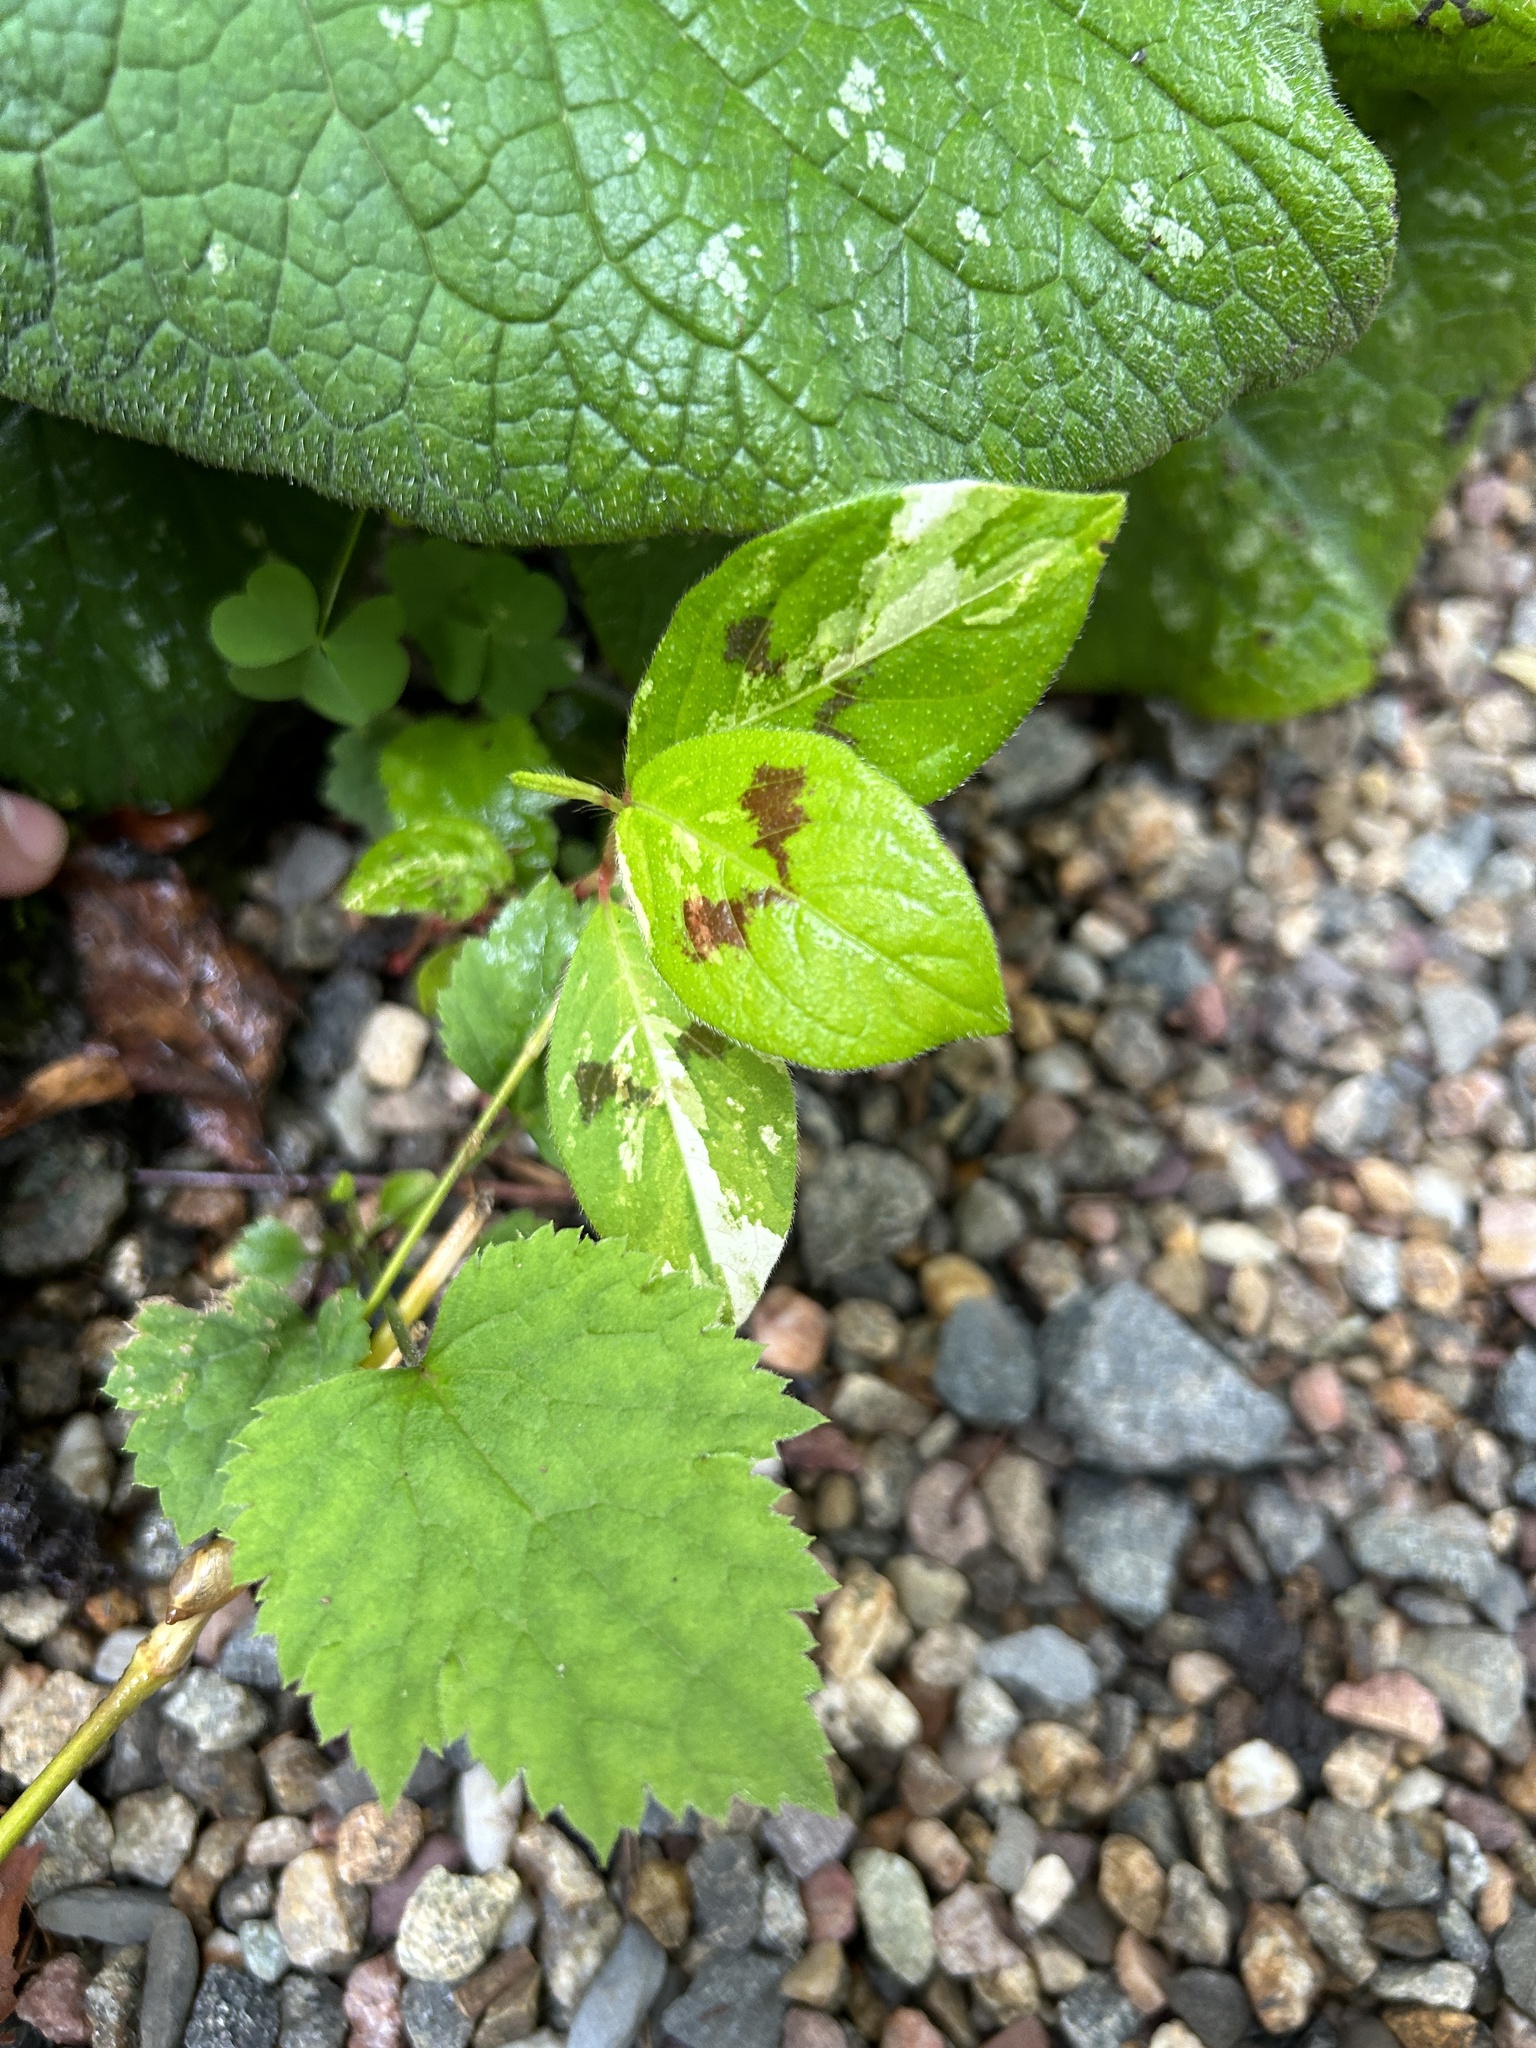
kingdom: Plantae
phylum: Tracheophyta
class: Magnoliopsida
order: Caryophyllales
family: Polygonaceae
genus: Persicaria
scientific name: Persicaria filiformis
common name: Asian jumpseed
